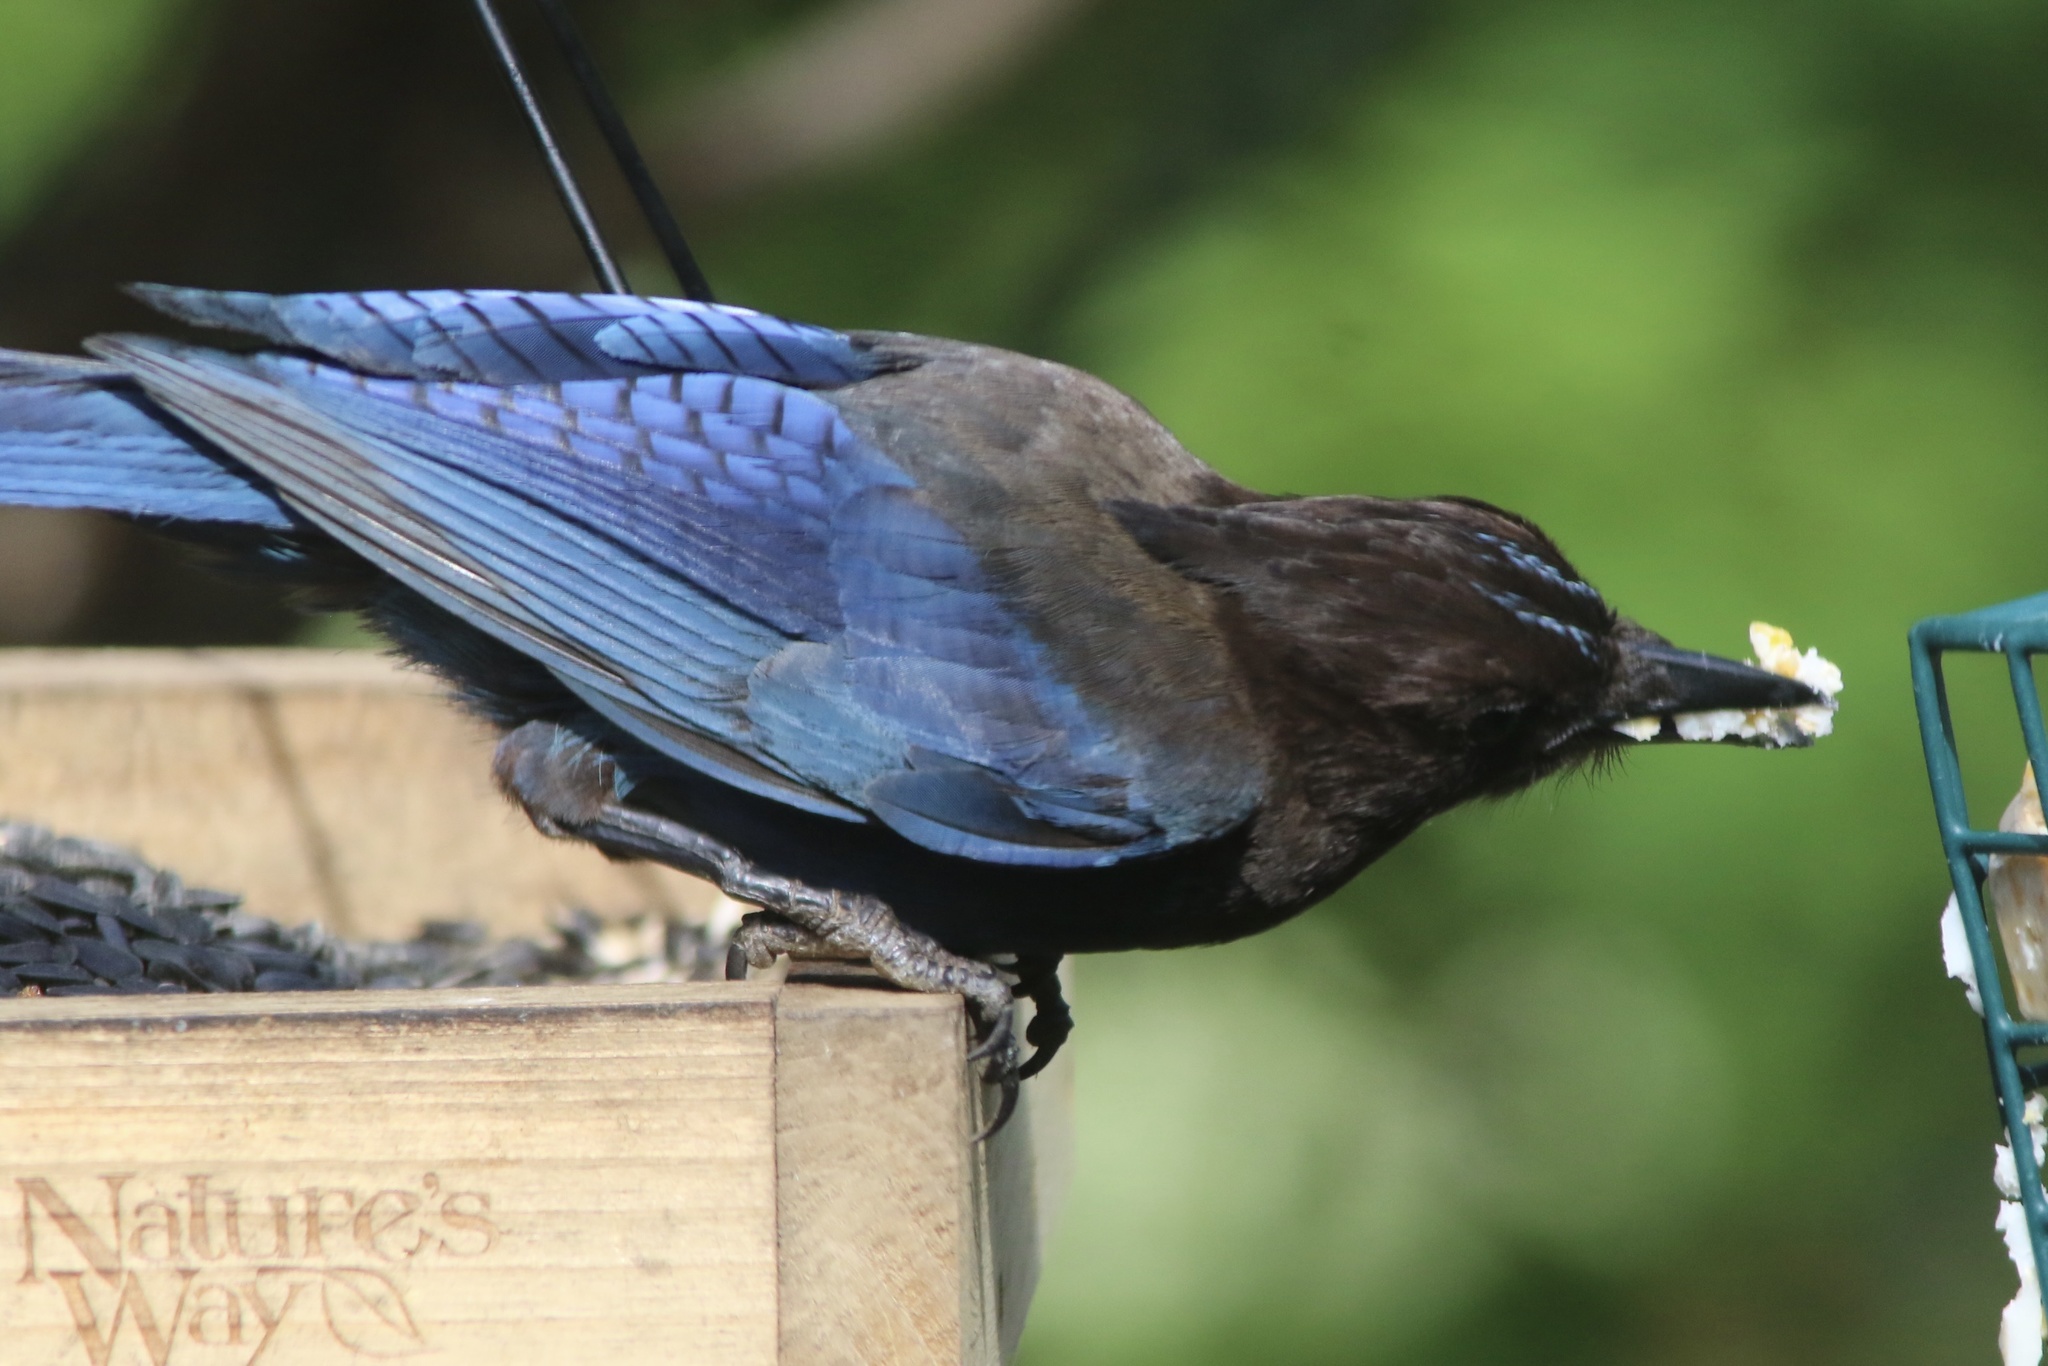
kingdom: Animalia
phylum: Chordata
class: Aves
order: Passeriformes
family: Corvidae
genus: Cyanocitta
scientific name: Cyanocitta stelleri
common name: Steller's jay
